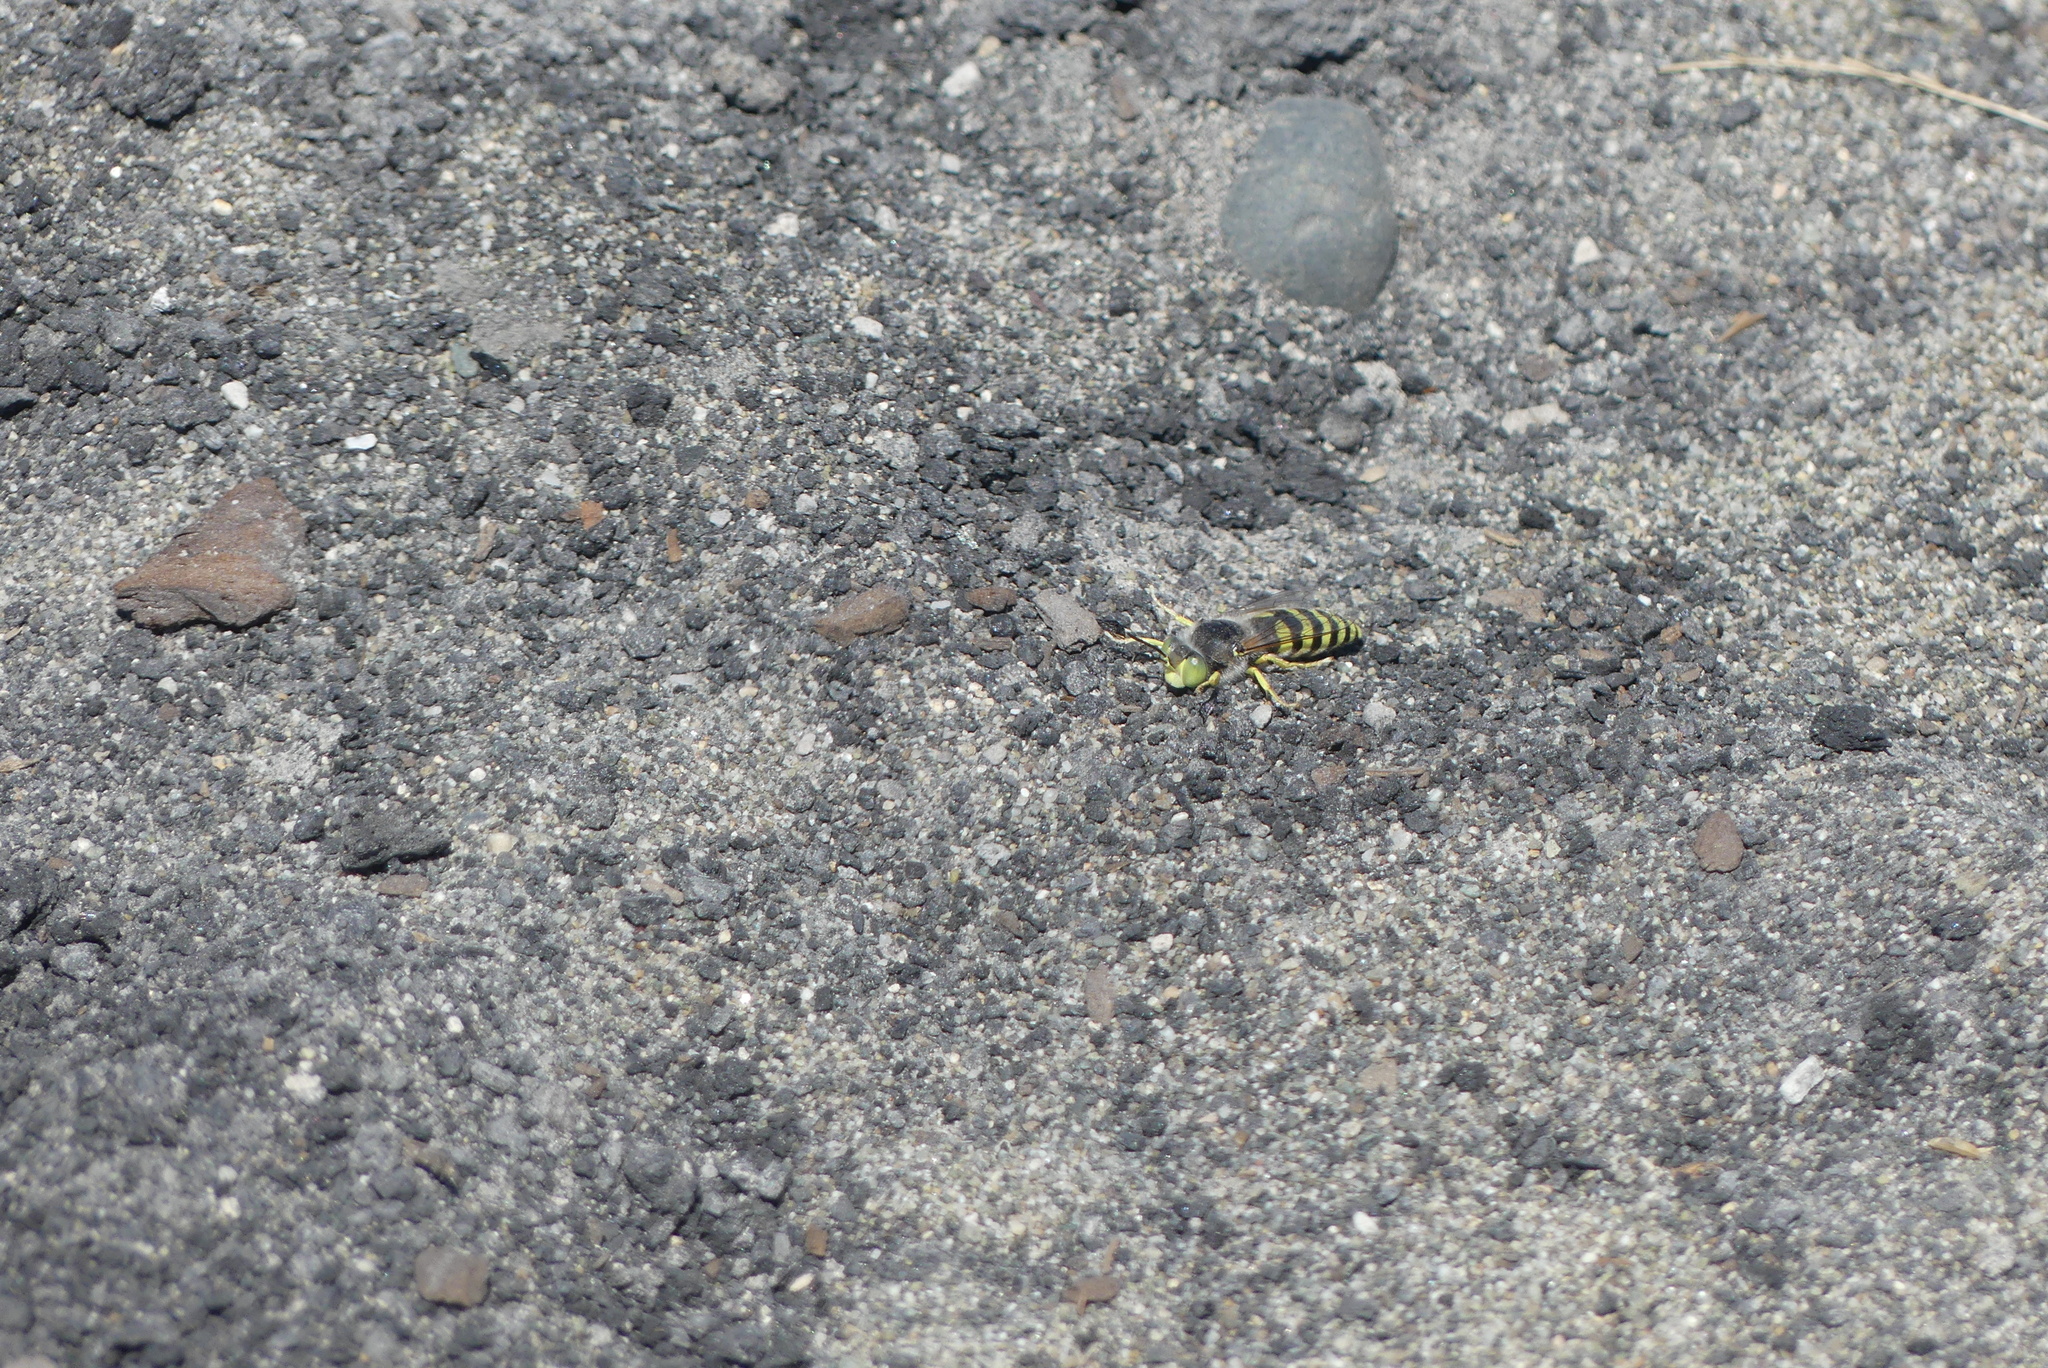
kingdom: Animalia
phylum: Arthropoda
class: Insecta
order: Hymenoptera
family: Crabronidae
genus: Bembix
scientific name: Bembix americana
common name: American sand wasp
